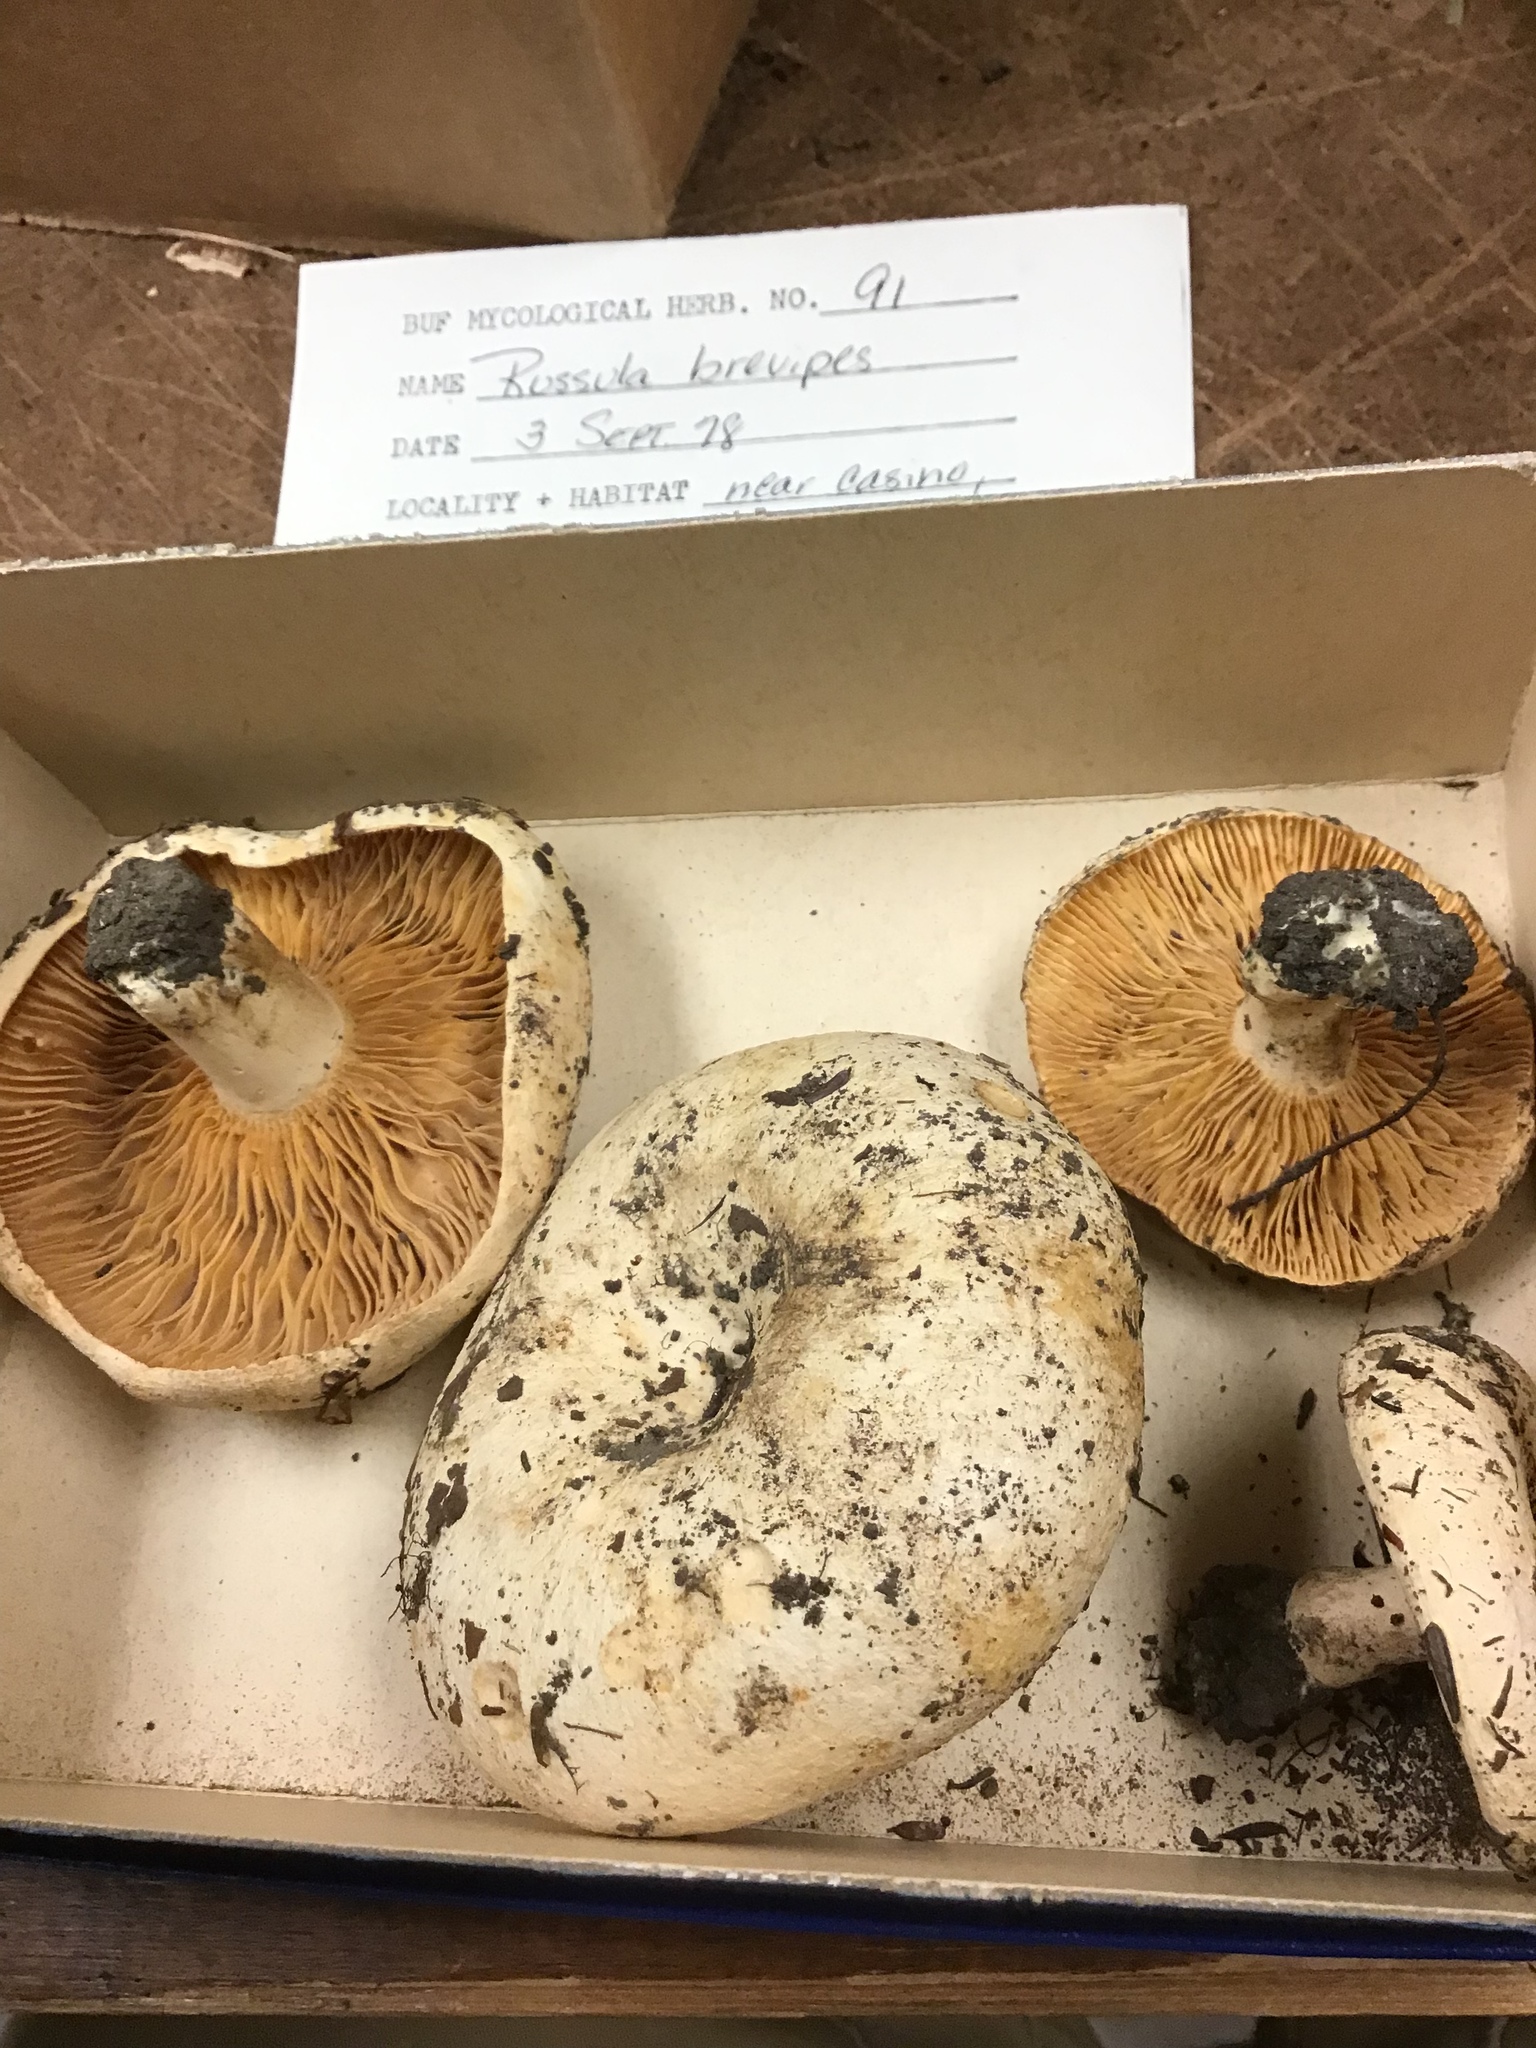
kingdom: Fungi
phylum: Basidiomycota
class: Agaricomycetes
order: Russulales
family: Russulaceae
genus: Russula
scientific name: Russula brevipes
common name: Short-stemmed russula
